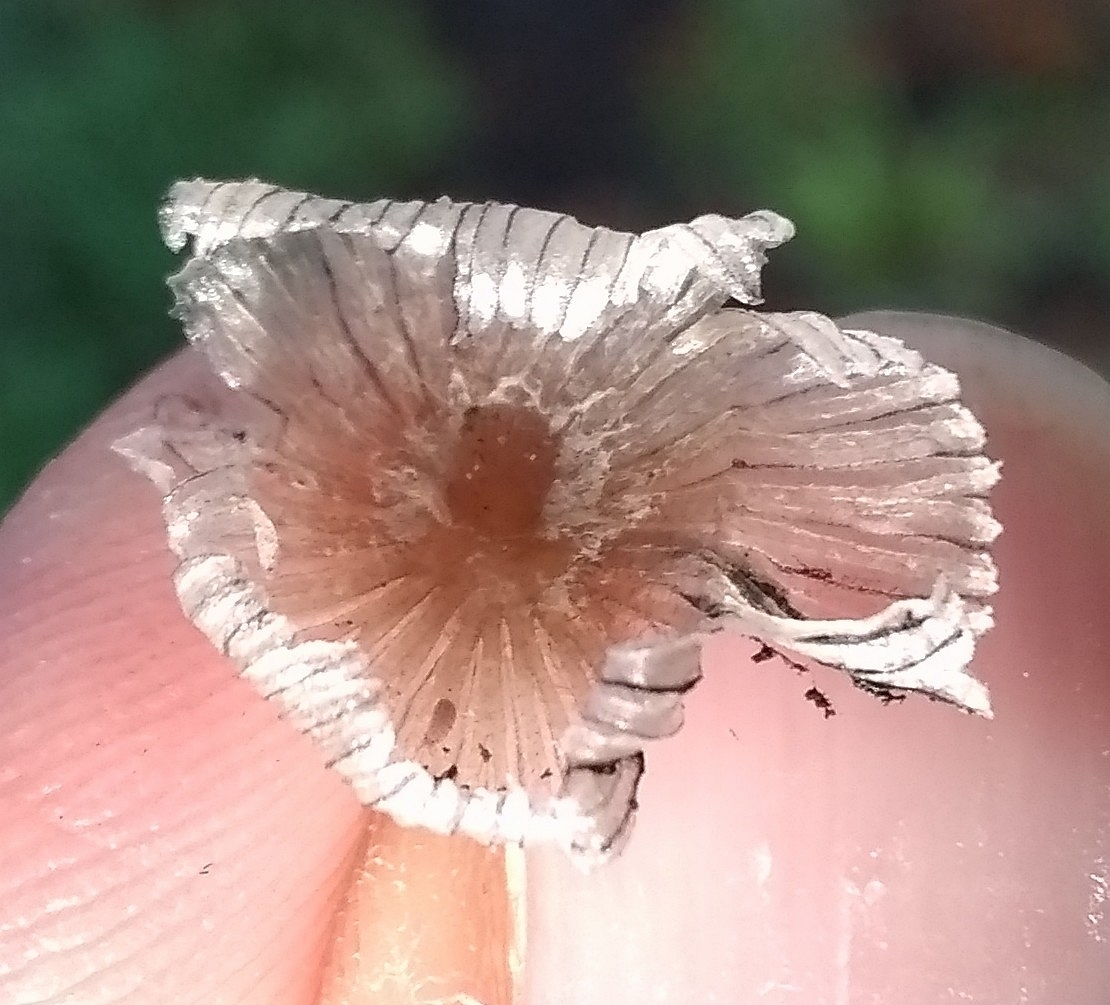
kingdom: Fungi
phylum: Basidiomycota
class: Agaricomycetes
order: Agaricales
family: Psathyrellaceae
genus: Coprinopsis
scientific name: Coprinopsis lagopus
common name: Hare'sfoot inkcap
